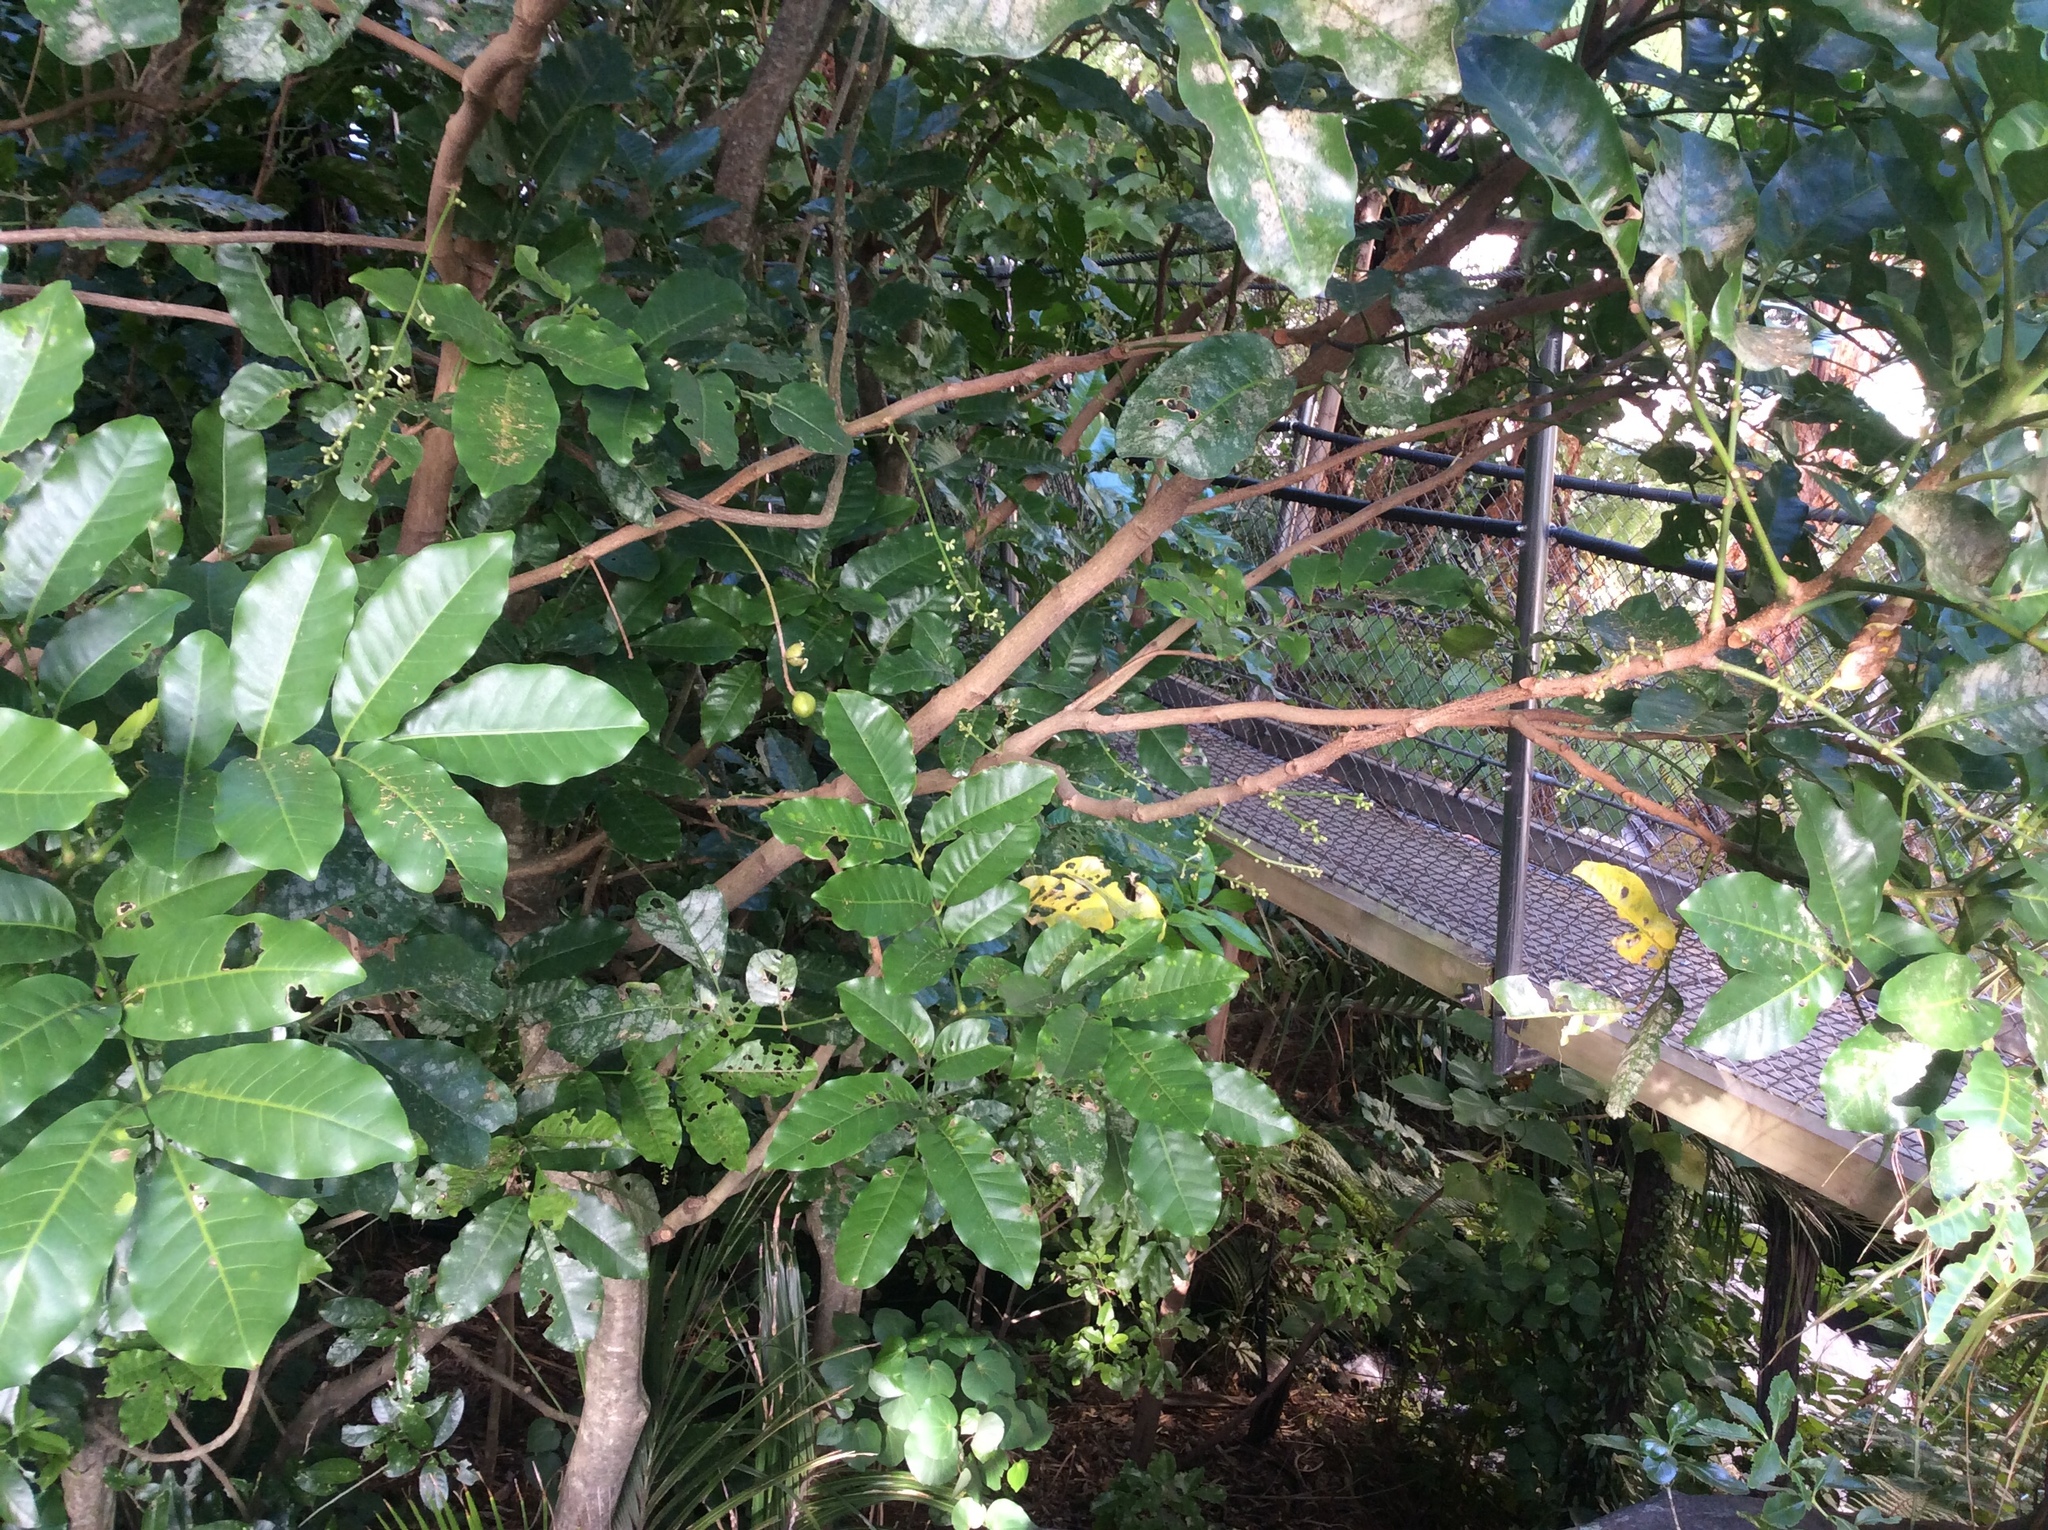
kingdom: Plantae
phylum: Tracheophyta
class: Magnoliopsida
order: Sapindales
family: Meliaceae
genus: Didymocheton
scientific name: Didymocheton spectabilis
